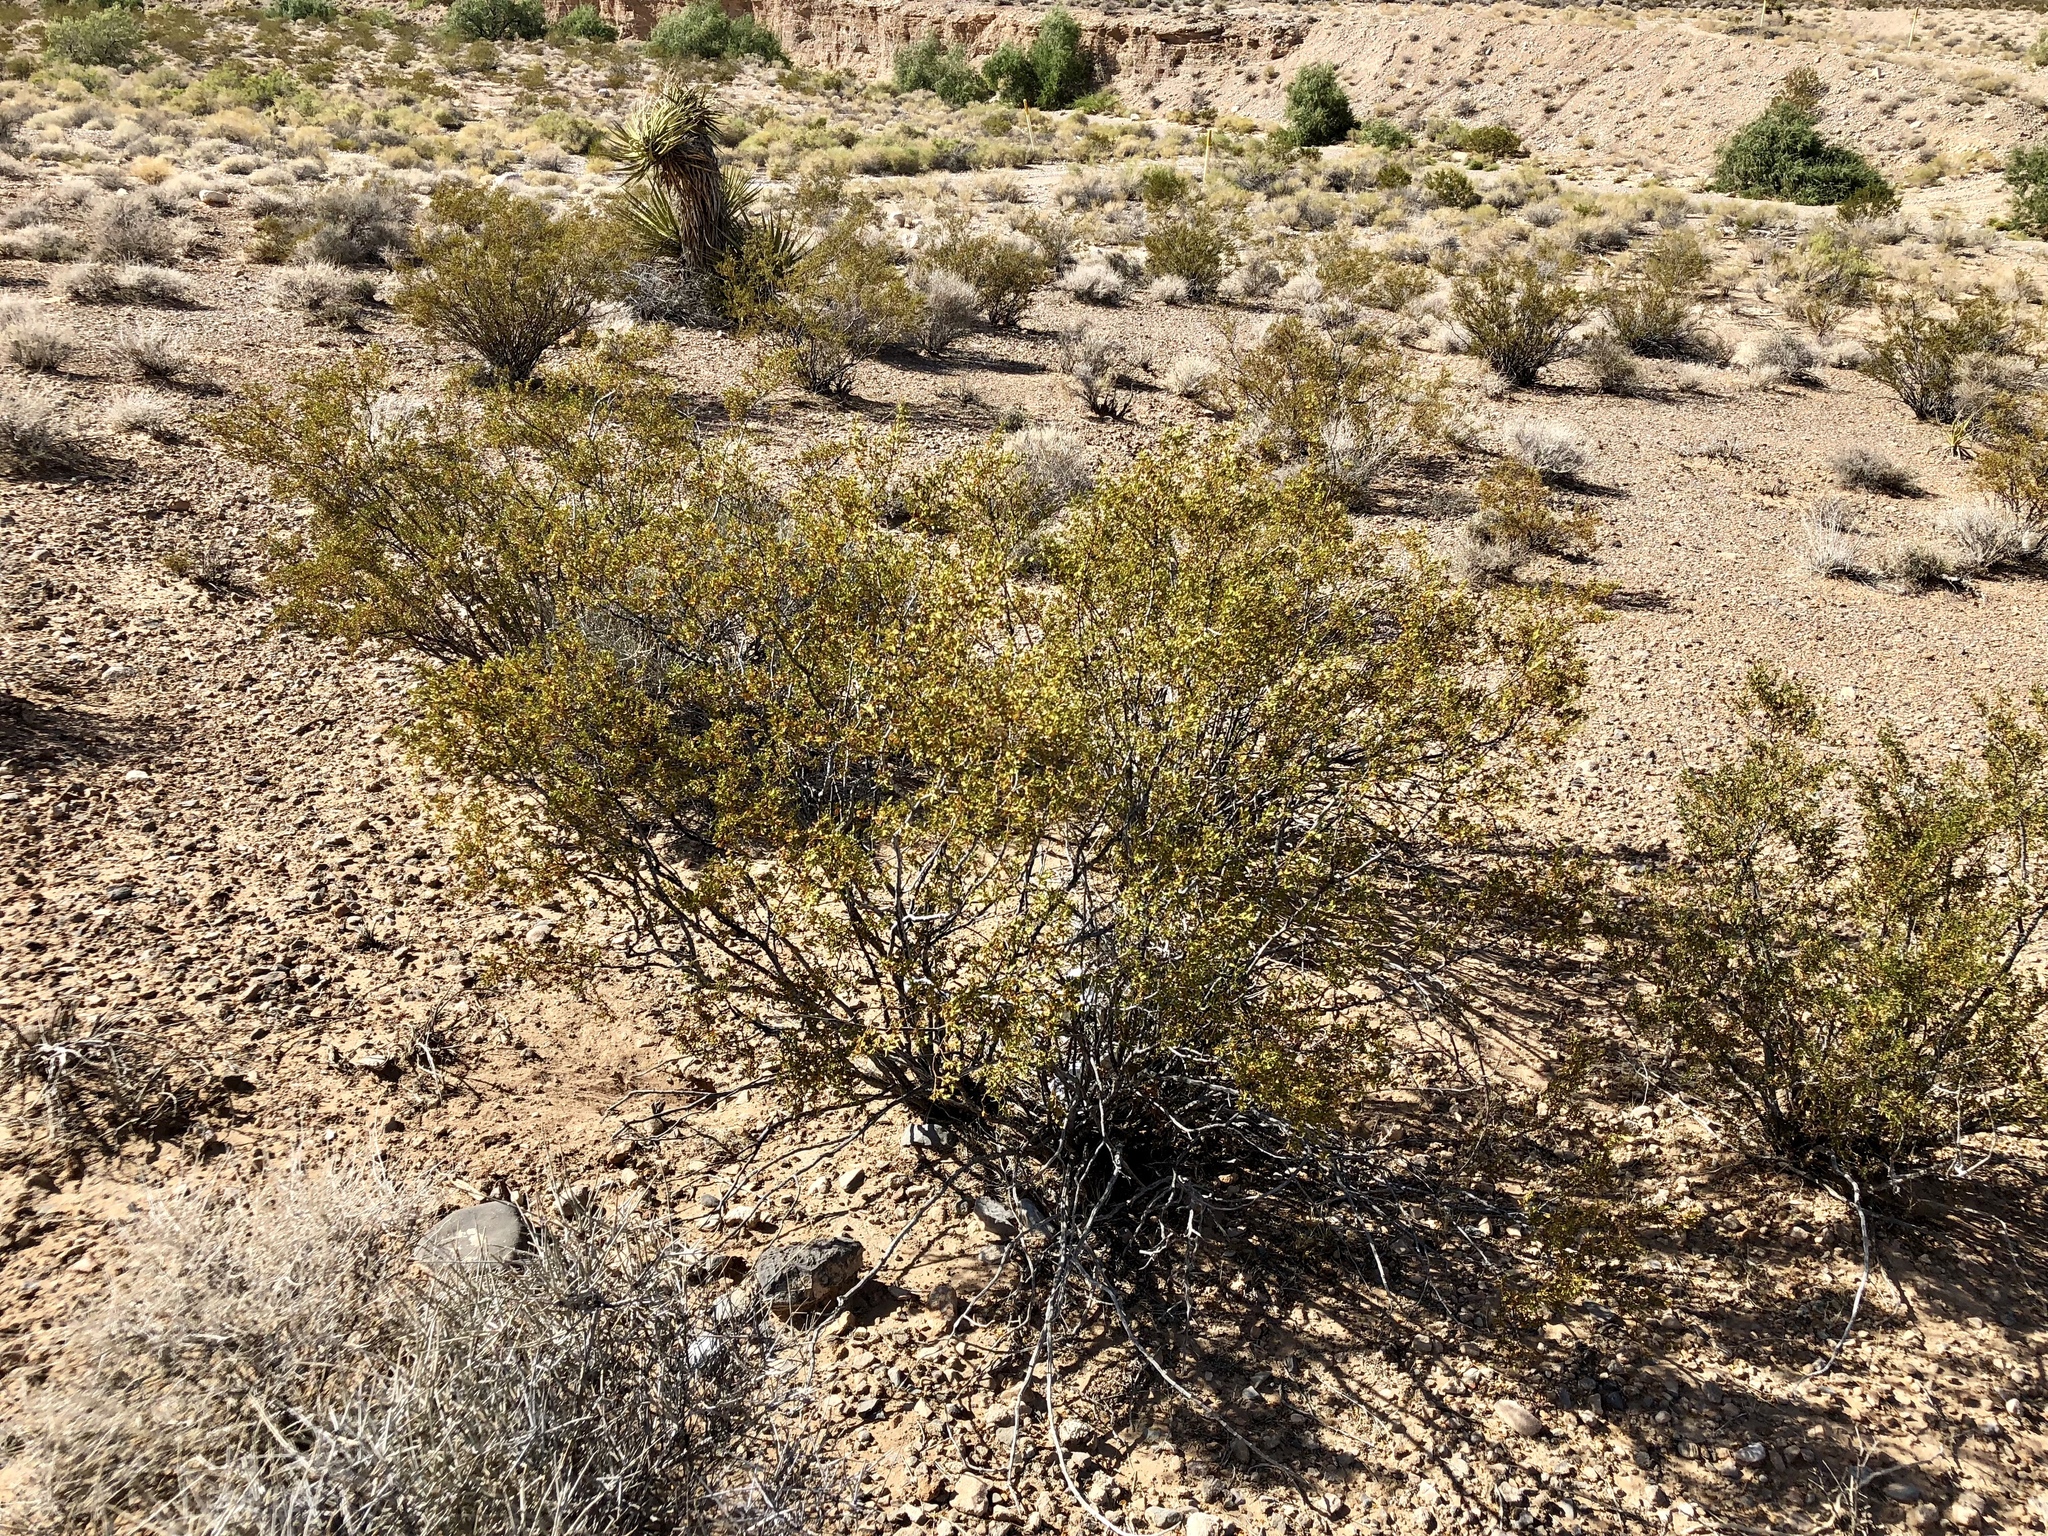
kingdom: Plantae
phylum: Tracheophyta
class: Magnoliopsida
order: Zygophyllales
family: Zygophyllaceae
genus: Larrea
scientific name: Larrea tridentata
